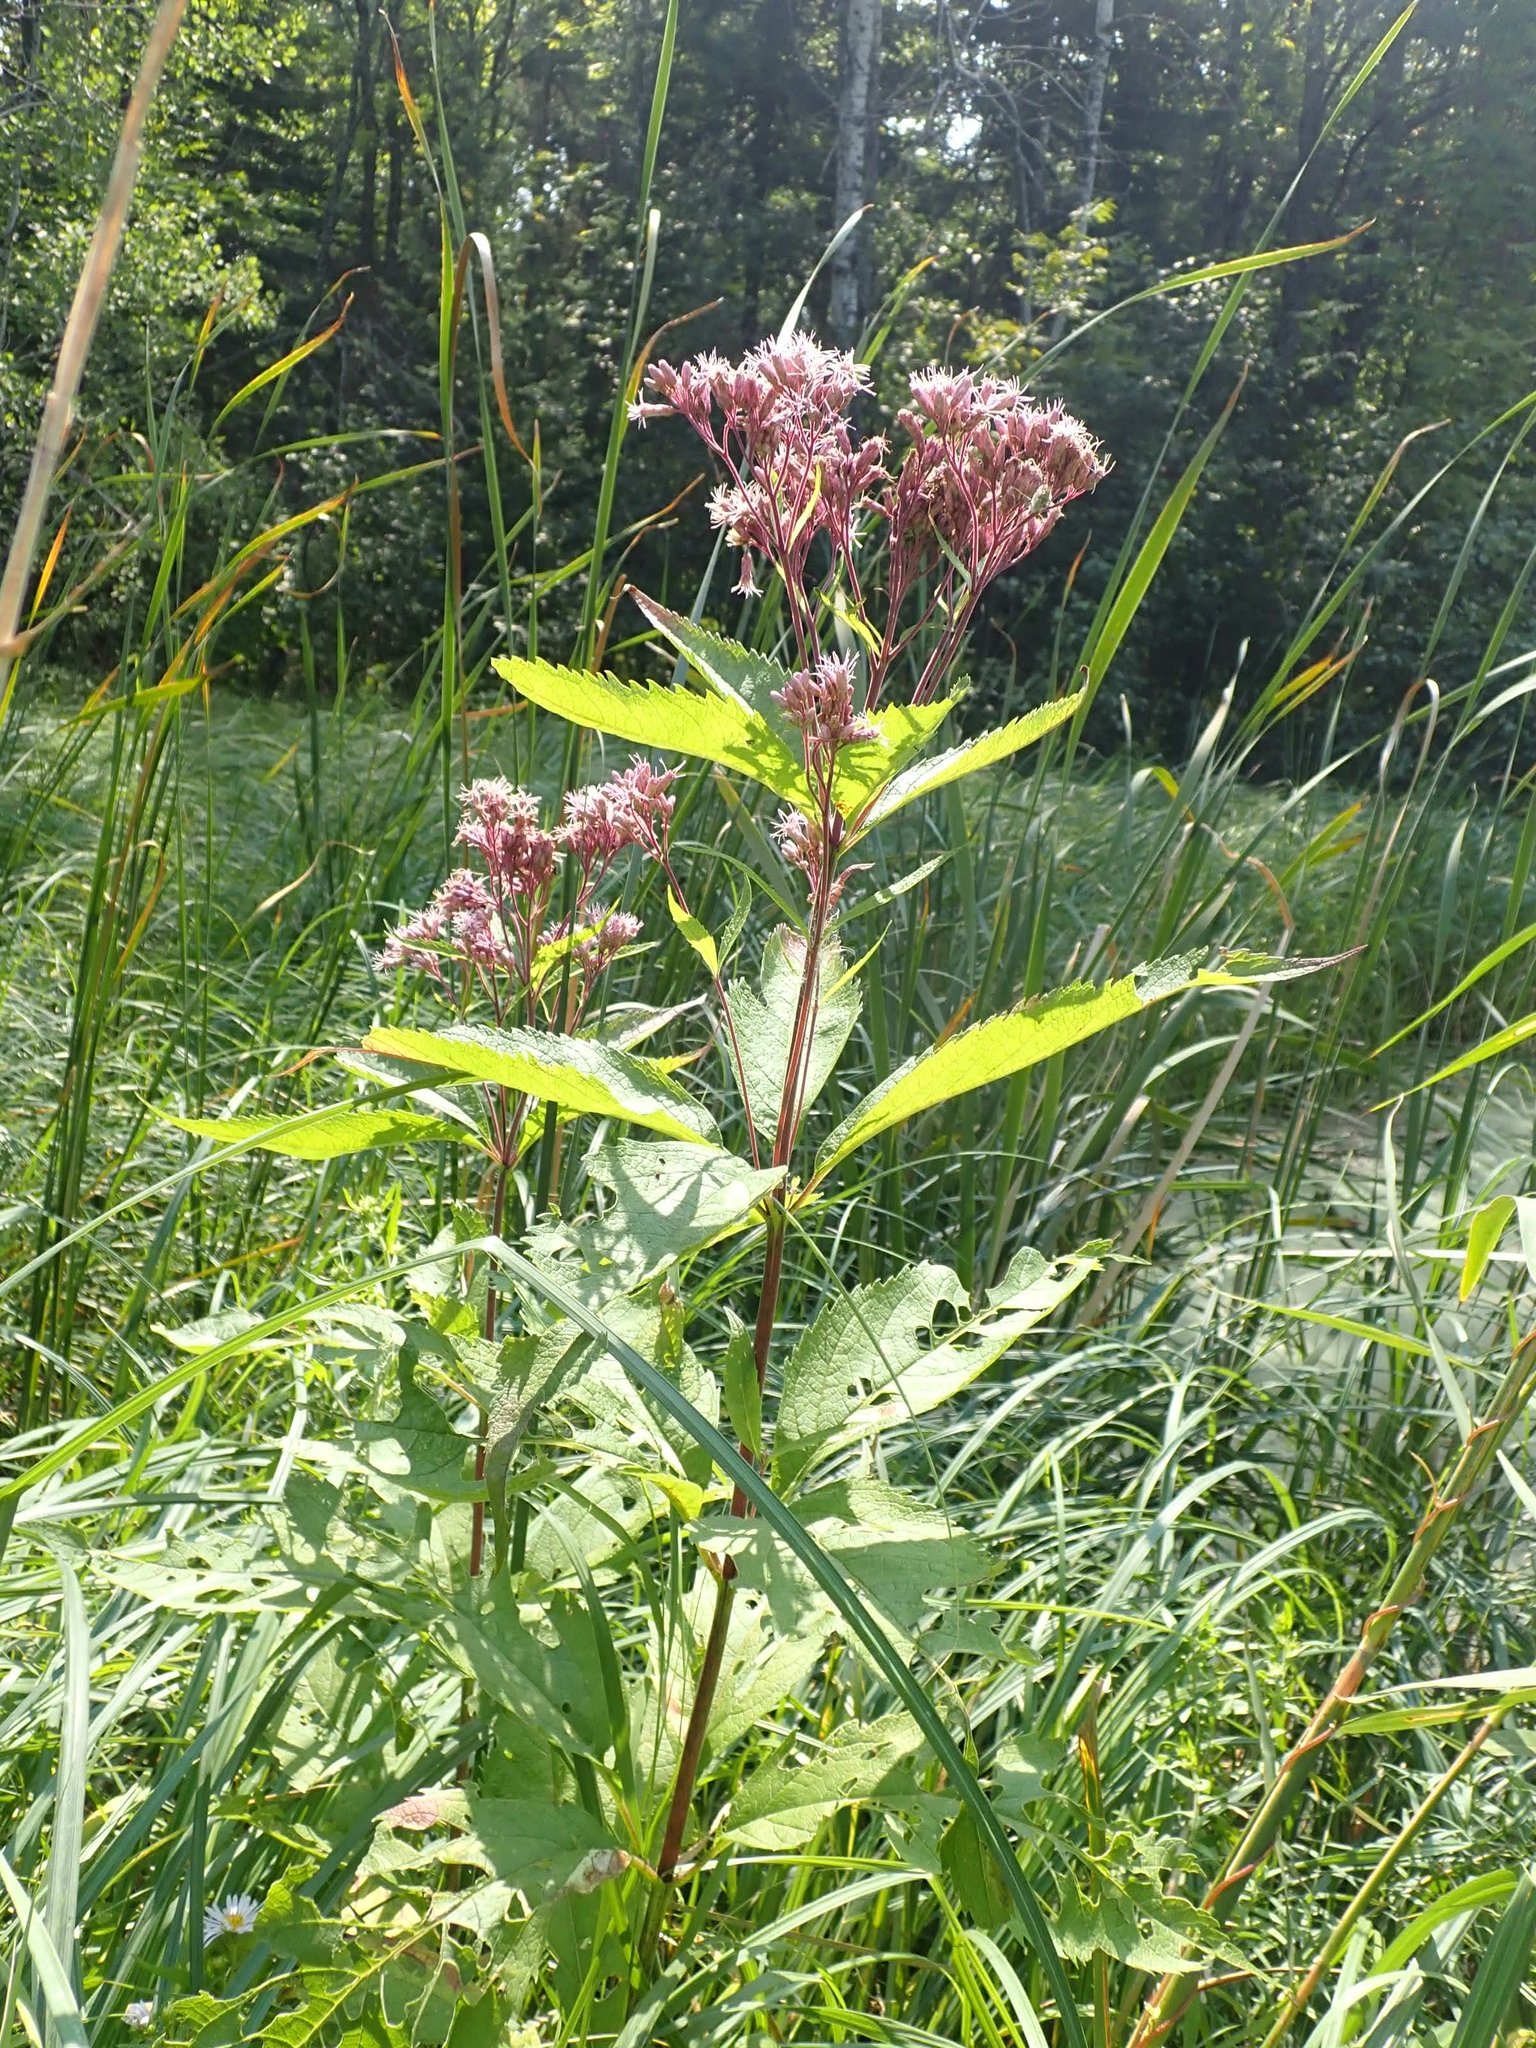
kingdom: Plantae
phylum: Tracheophyta
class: Magnoliopsida
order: Asterales
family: Asteraceae
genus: Eutrochium
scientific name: Eutrochium maculatum
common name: Spotted joe pye weed
